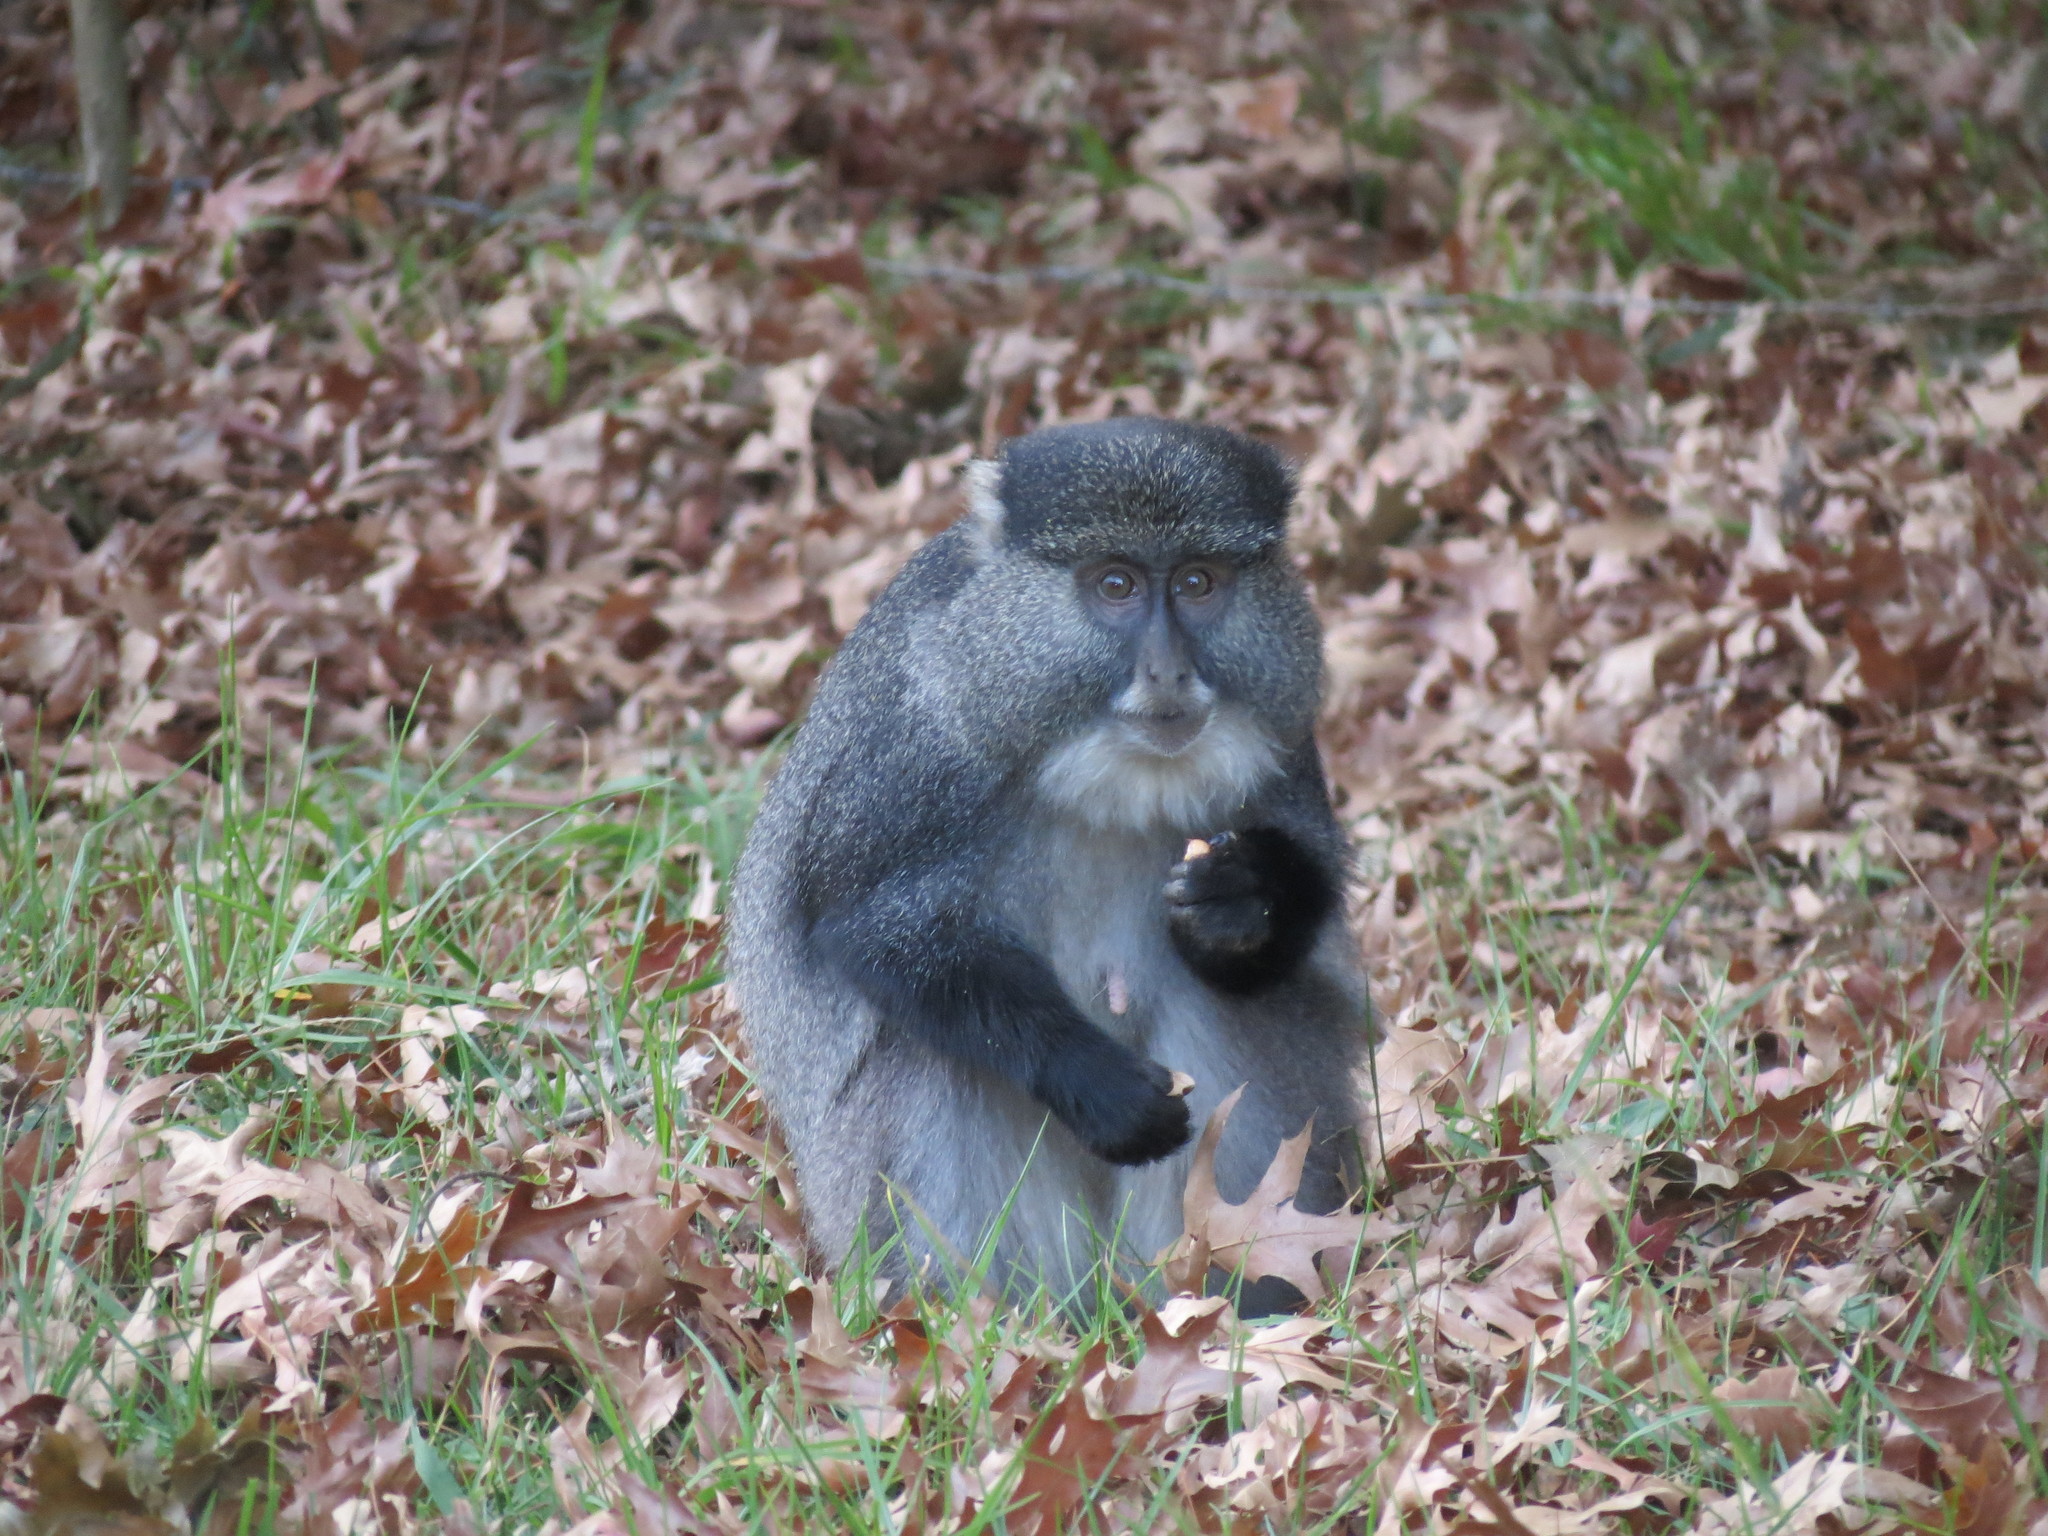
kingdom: Animalia
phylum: Chordata
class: Mammalia
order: Primates
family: Cercopithecidae
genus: Cercopithecus
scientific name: Cercopithecus mitis
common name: Blue monkey
